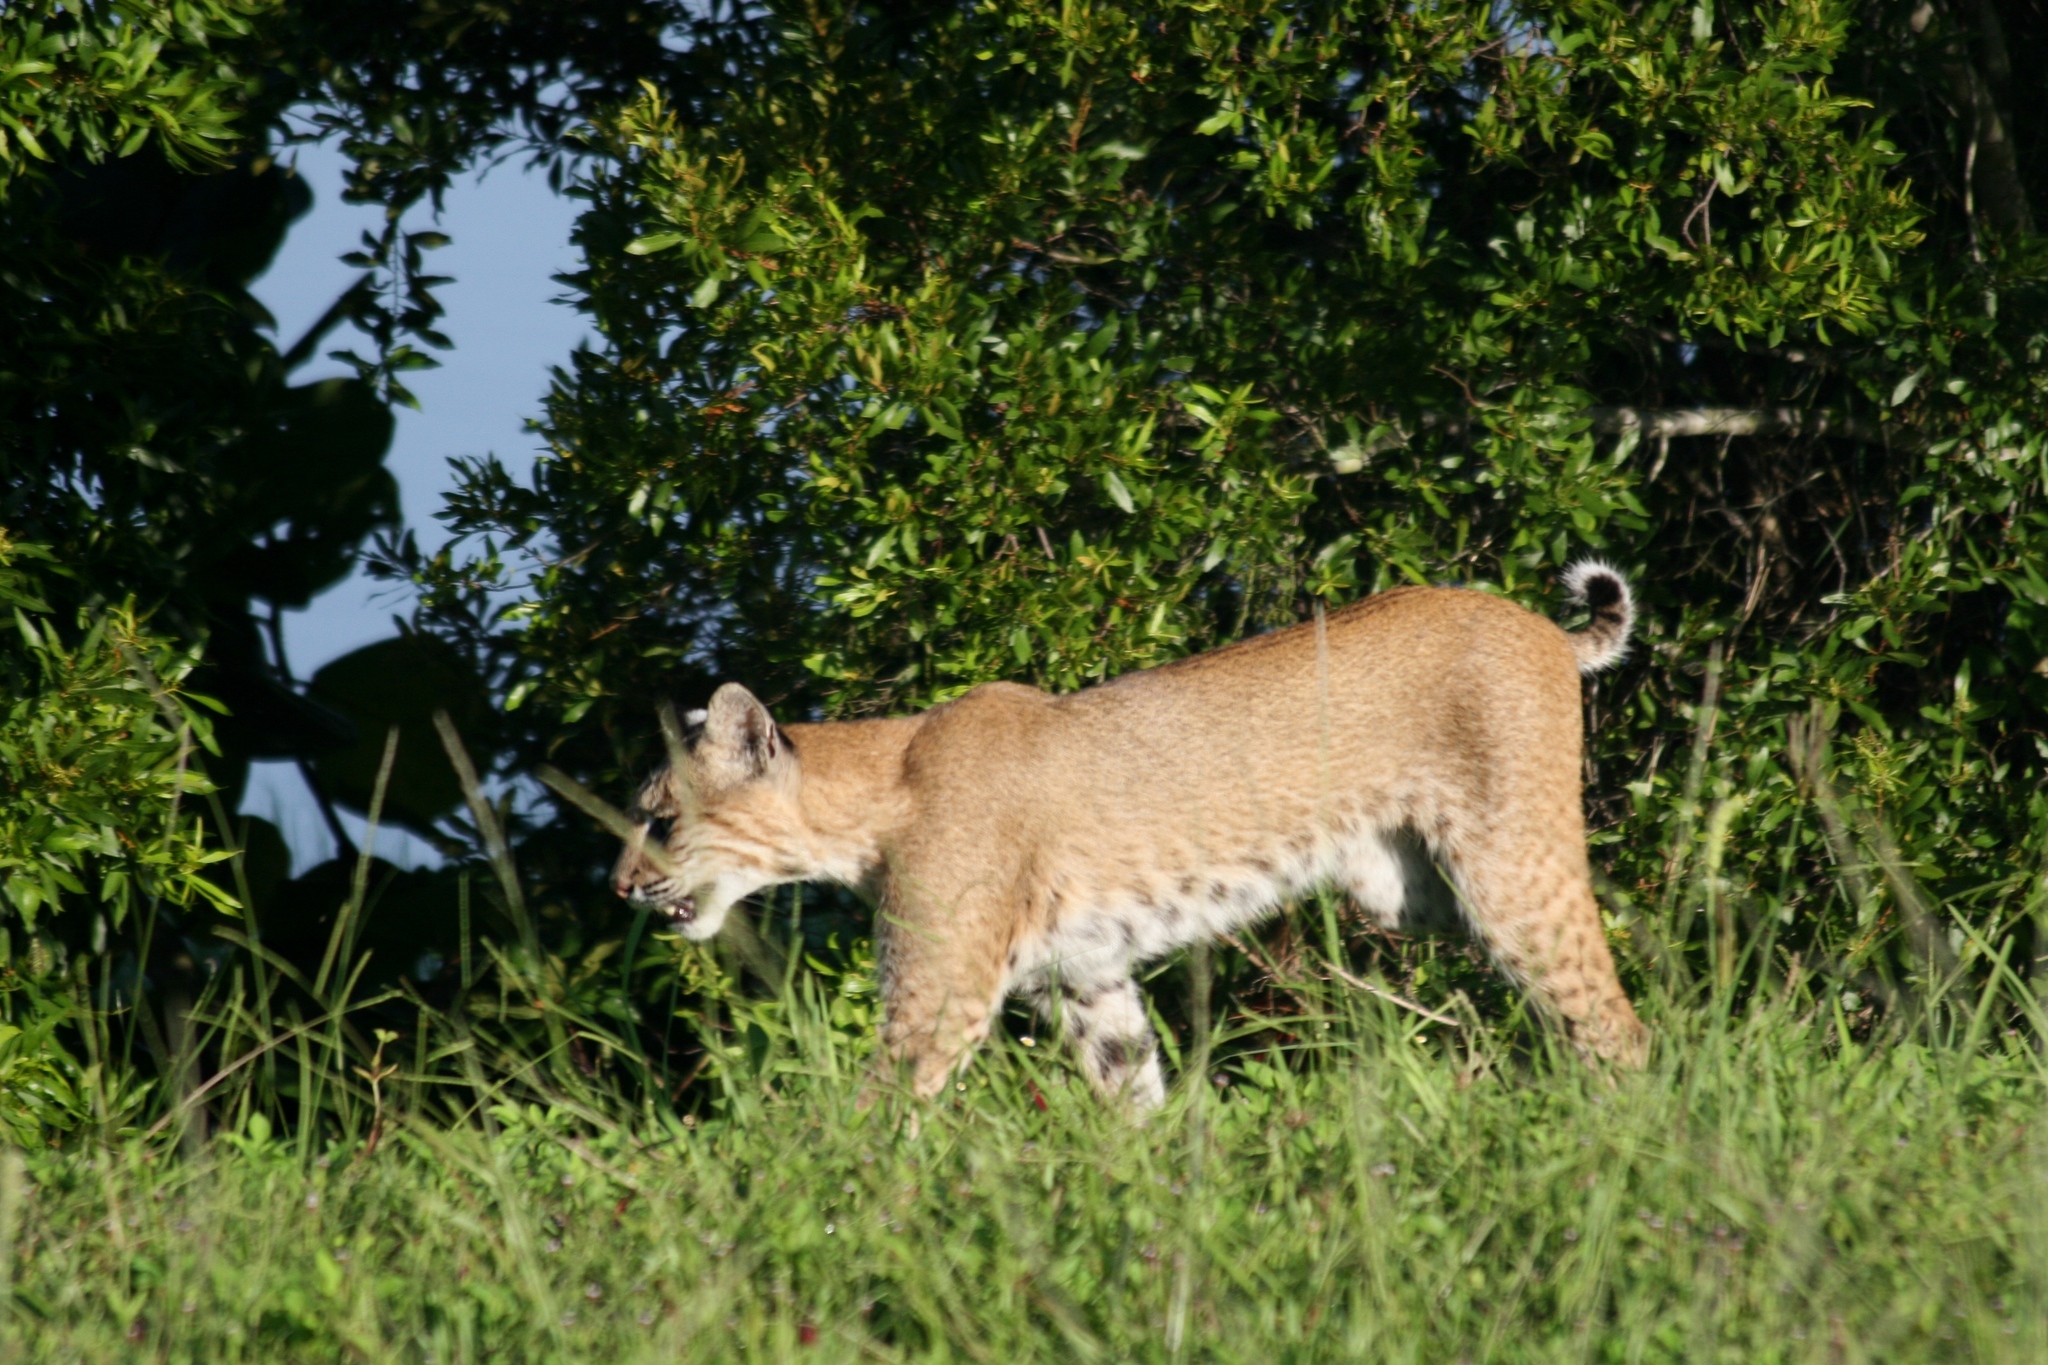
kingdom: Animalia
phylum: Chordata
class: Mammalia
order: Carnivora
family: Felidae
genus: Lynx
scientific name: Lynx rufus
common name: Bobcat
